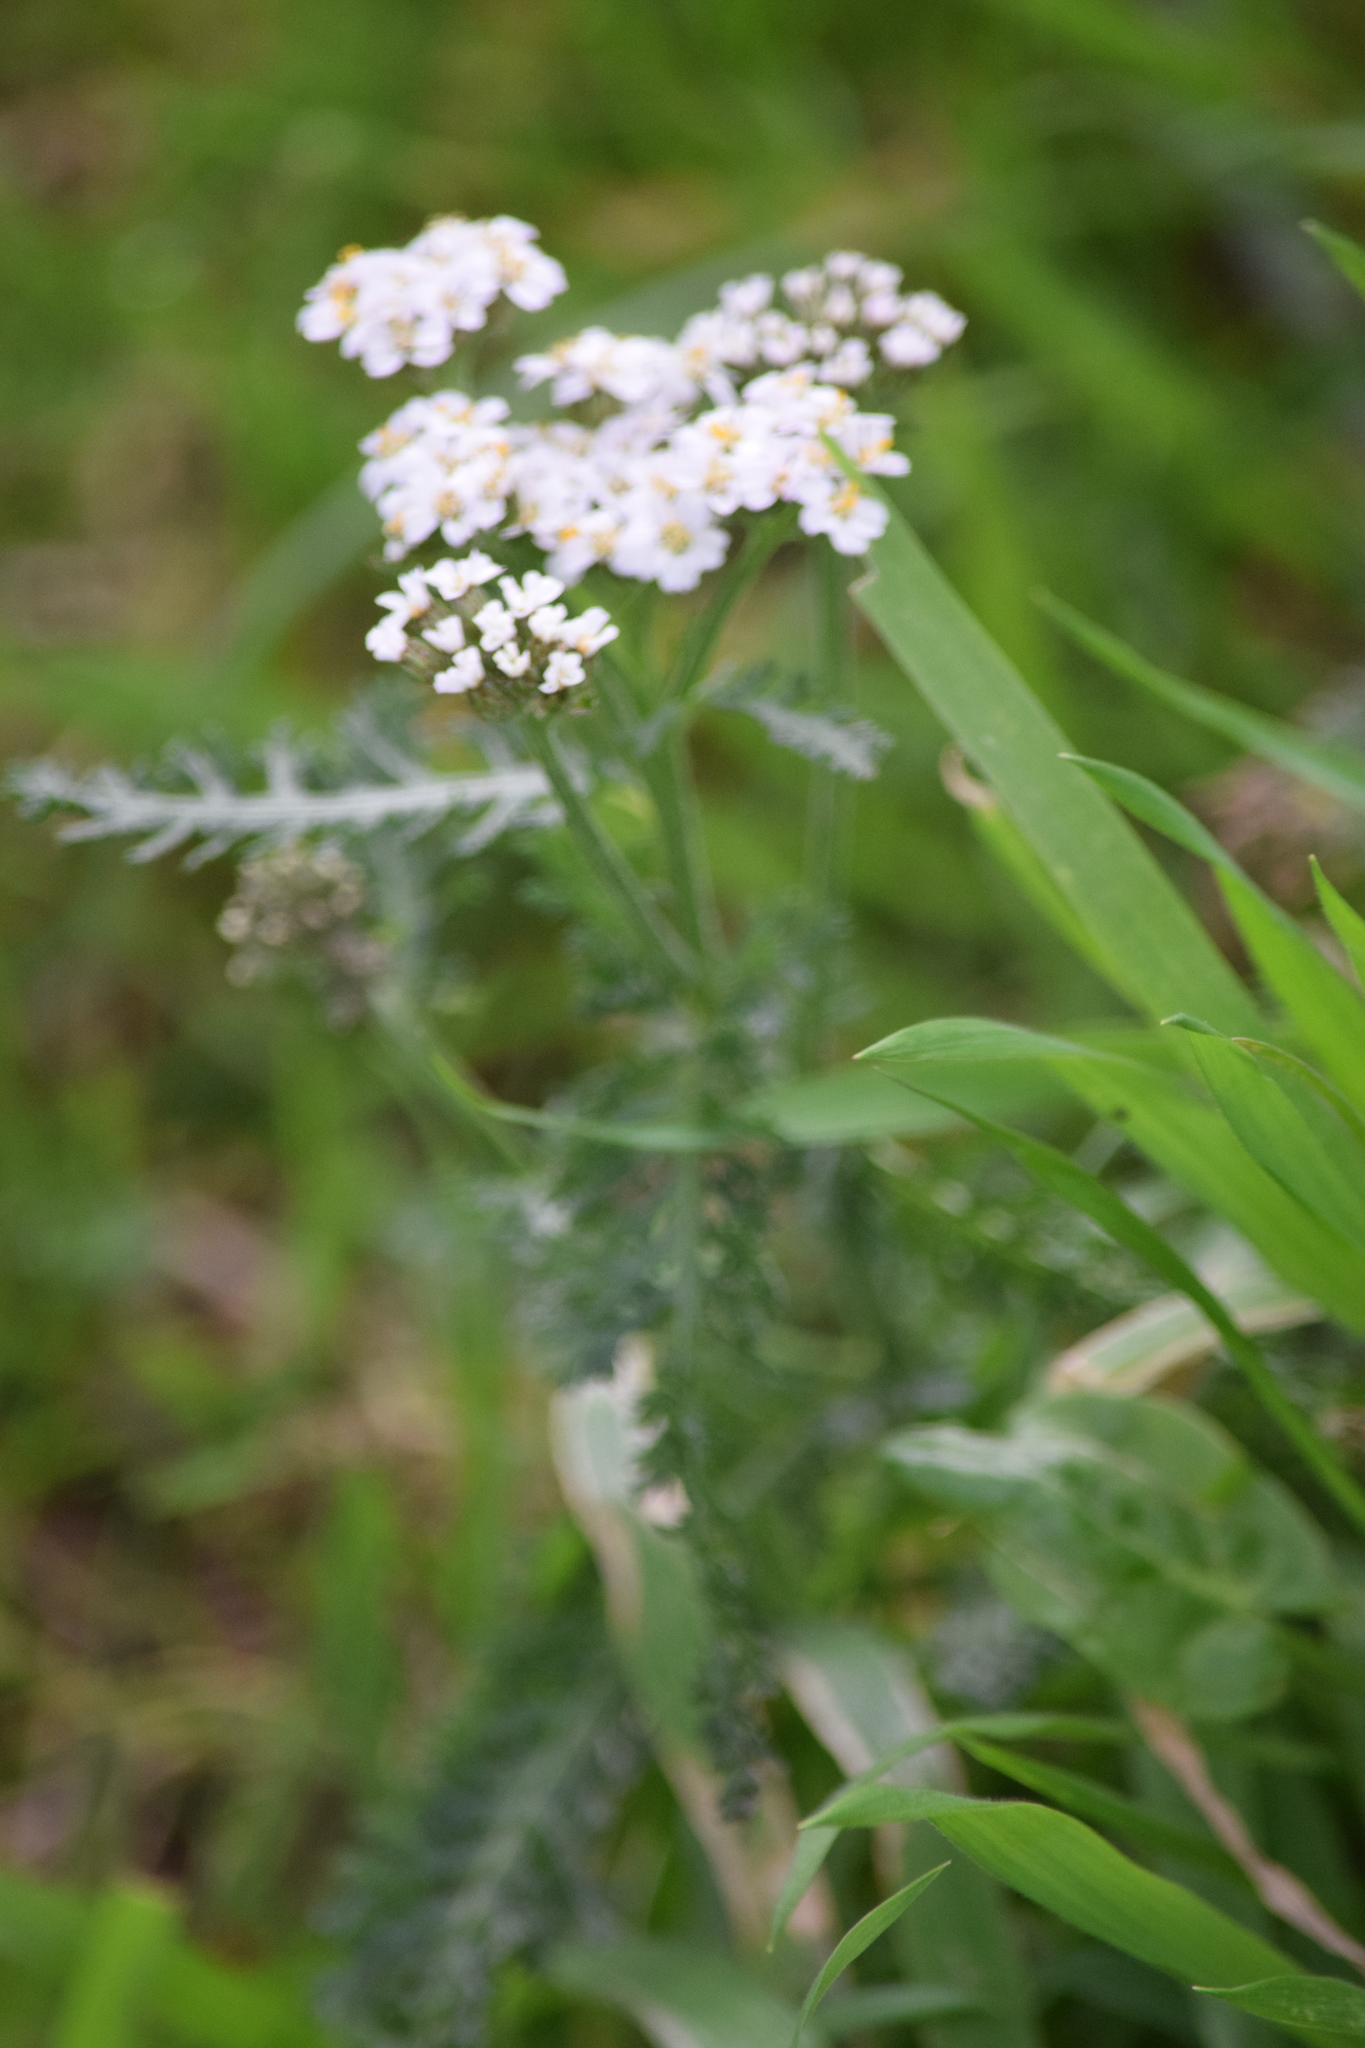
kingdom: Plantae
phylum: Tracheophyta
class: Magnoliopsida
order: Asterales
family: Asteraceae
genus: Achillea
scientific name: Achillea millefolium
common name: Yarrow
